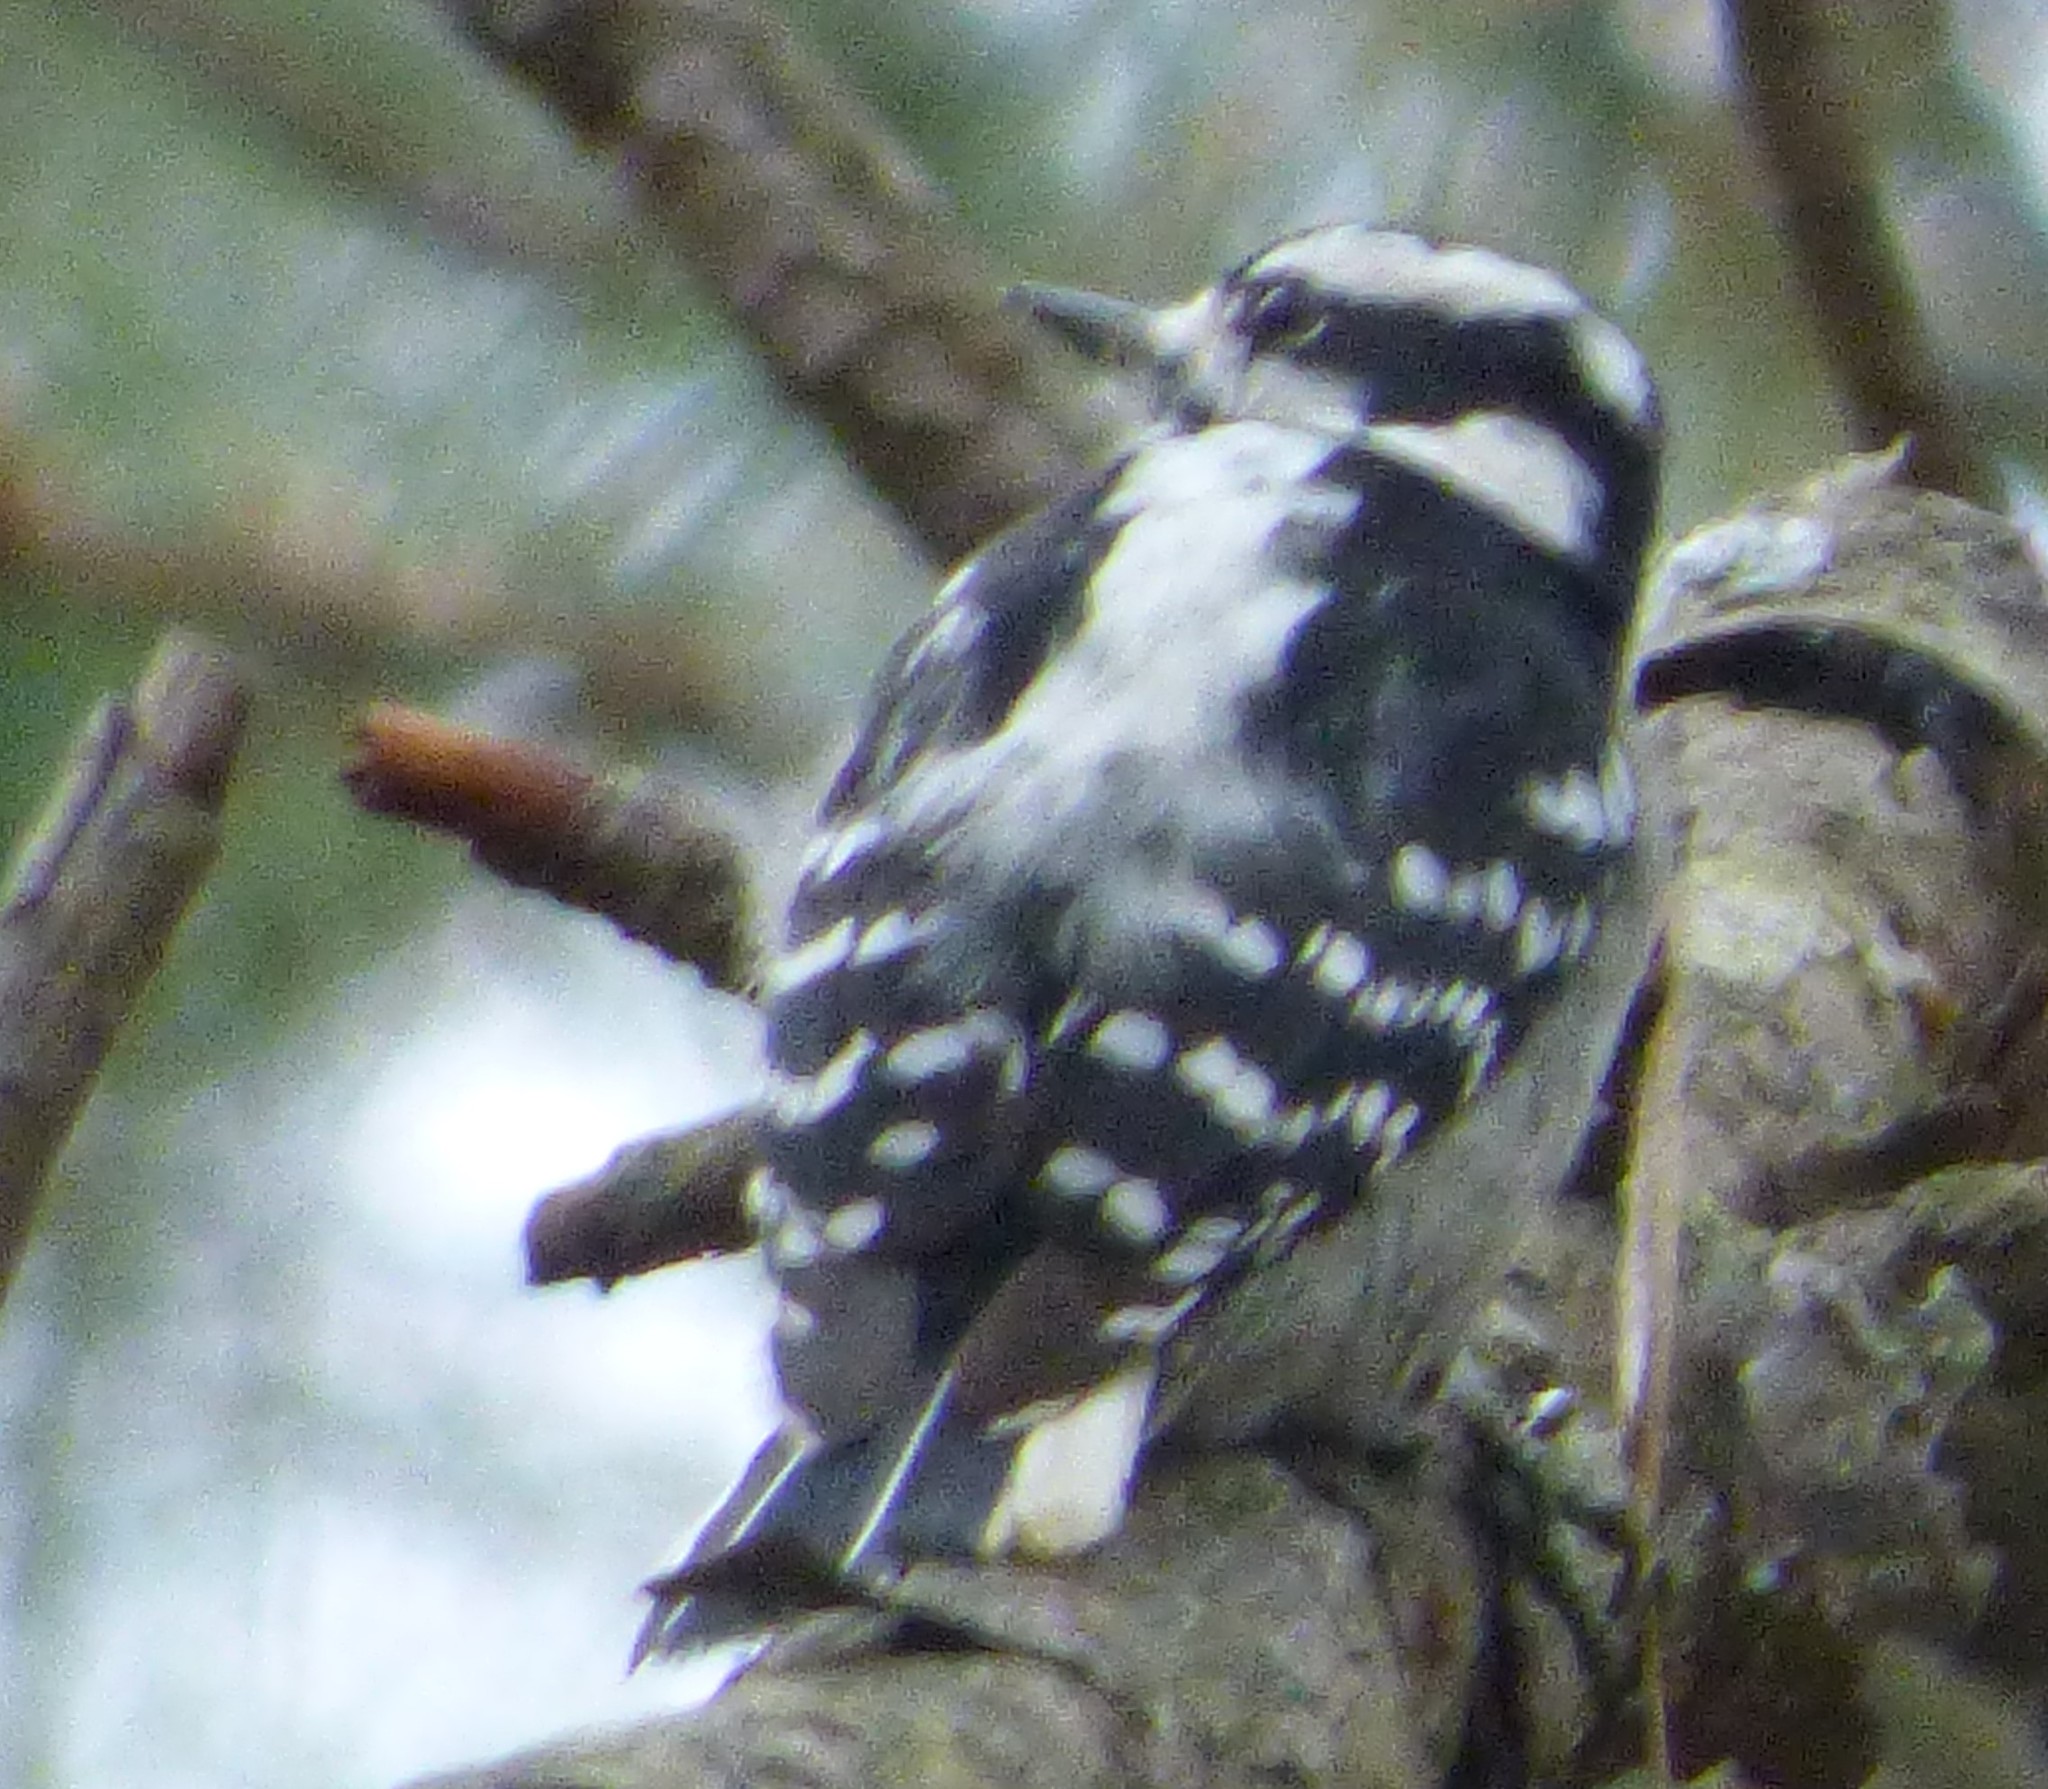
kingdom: Animalia
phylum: Chordata
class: Aves
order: Piciformes
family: Picidae
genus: Dryobates
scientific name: Dryobates pubescens
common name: Downy woodpecker
